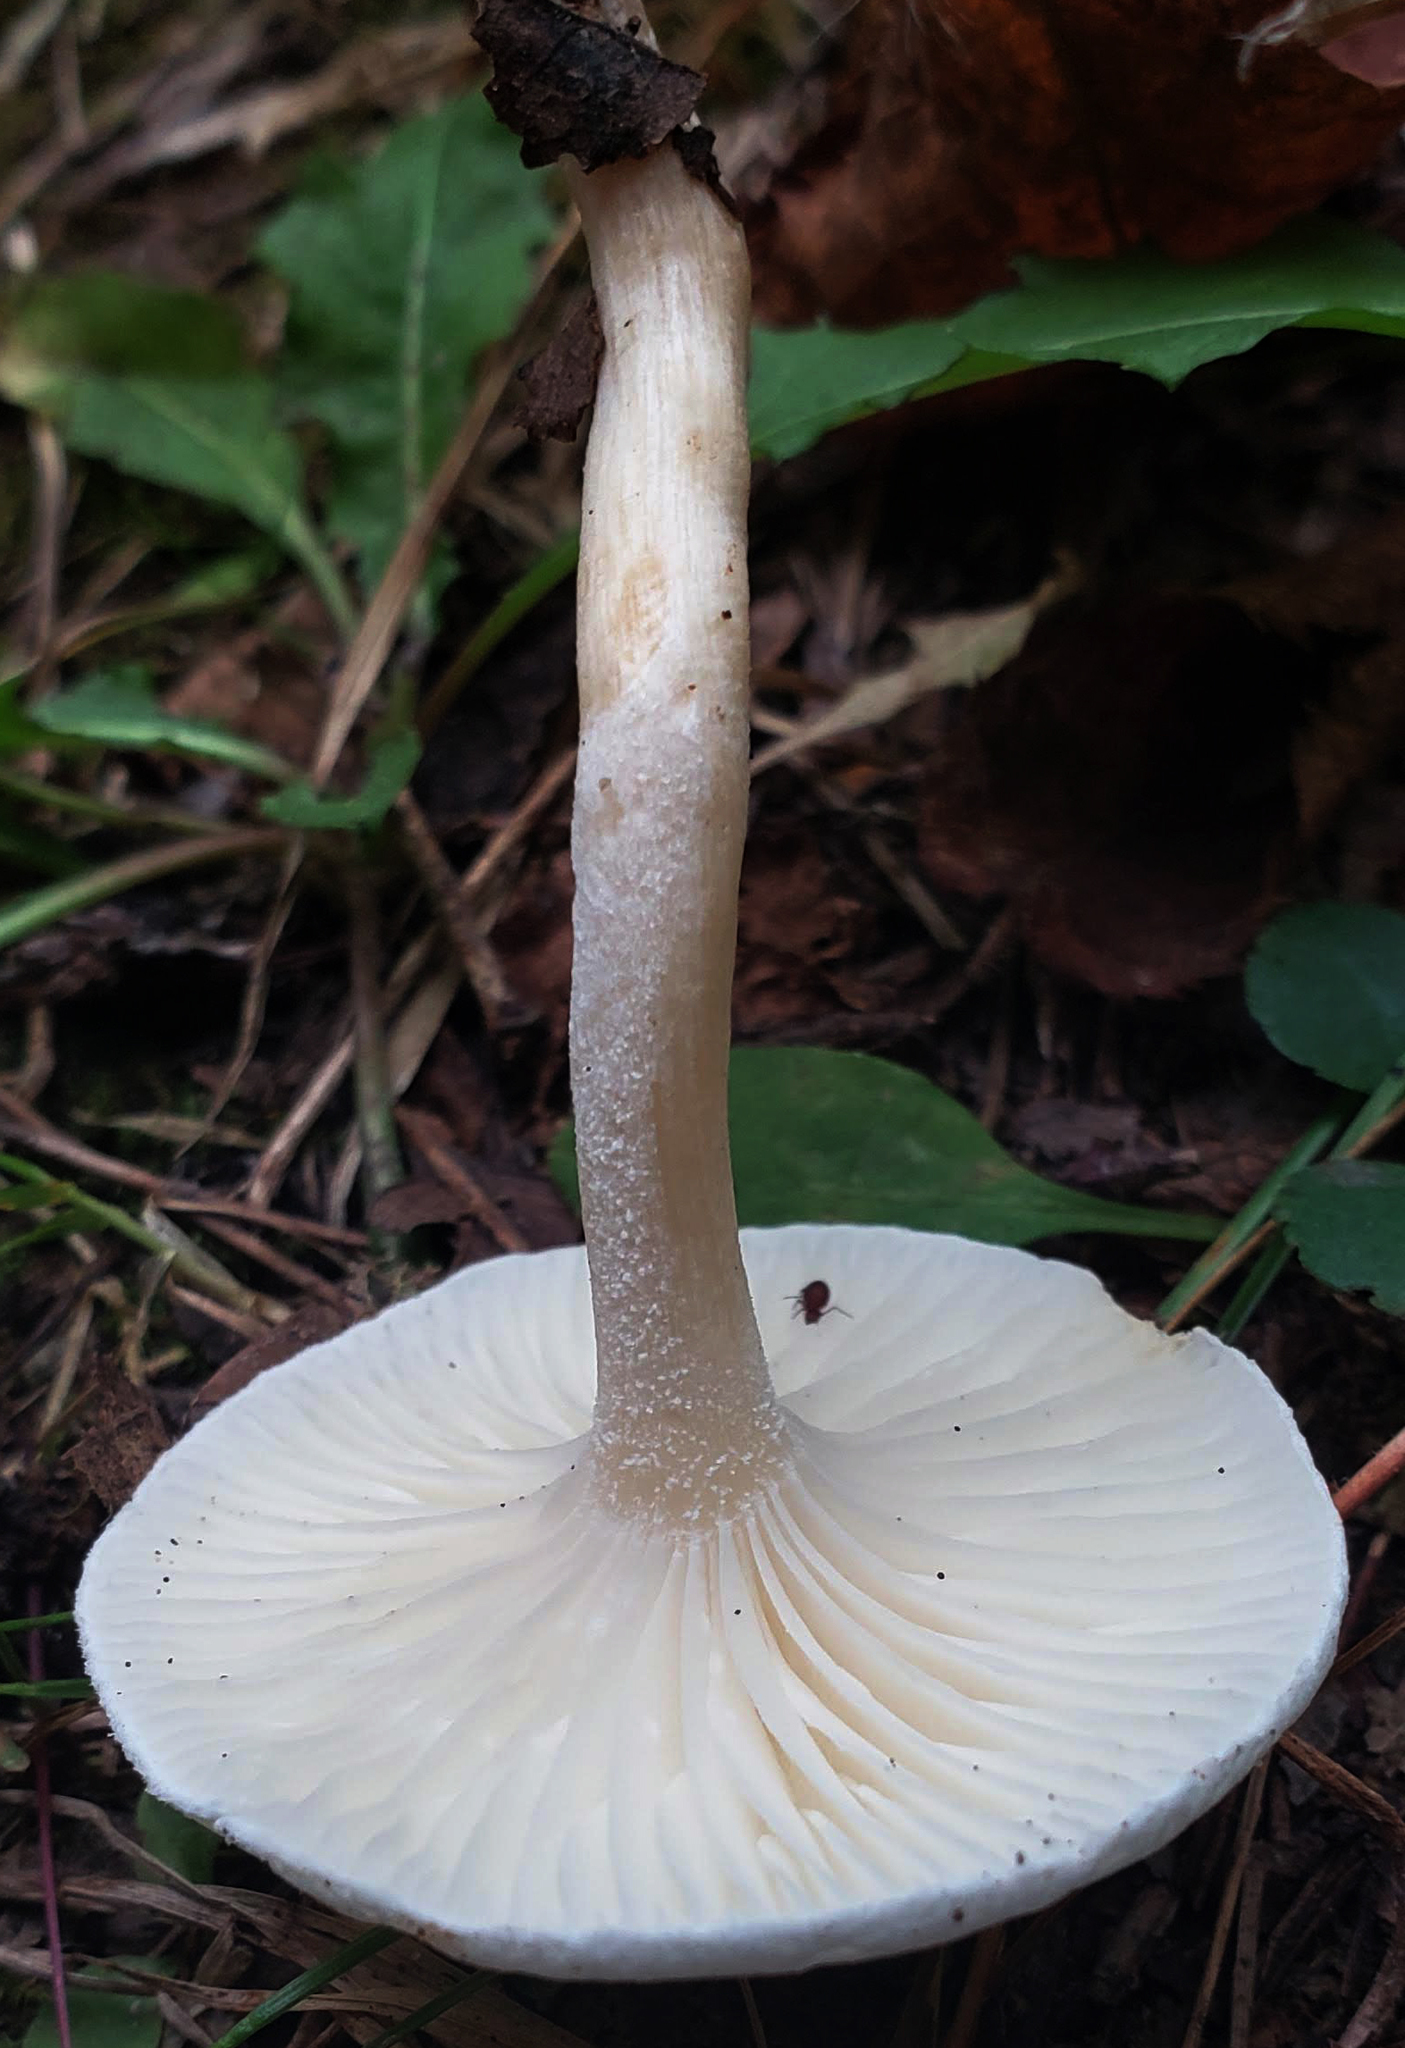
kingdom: Fungi
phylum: Basidiomycota
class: Agaricomycetes
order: Agaricales
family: Hygrophoraceae
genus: Hygrophorus
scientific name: Hygrophorus eburneus
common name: Ivory wax-cap
